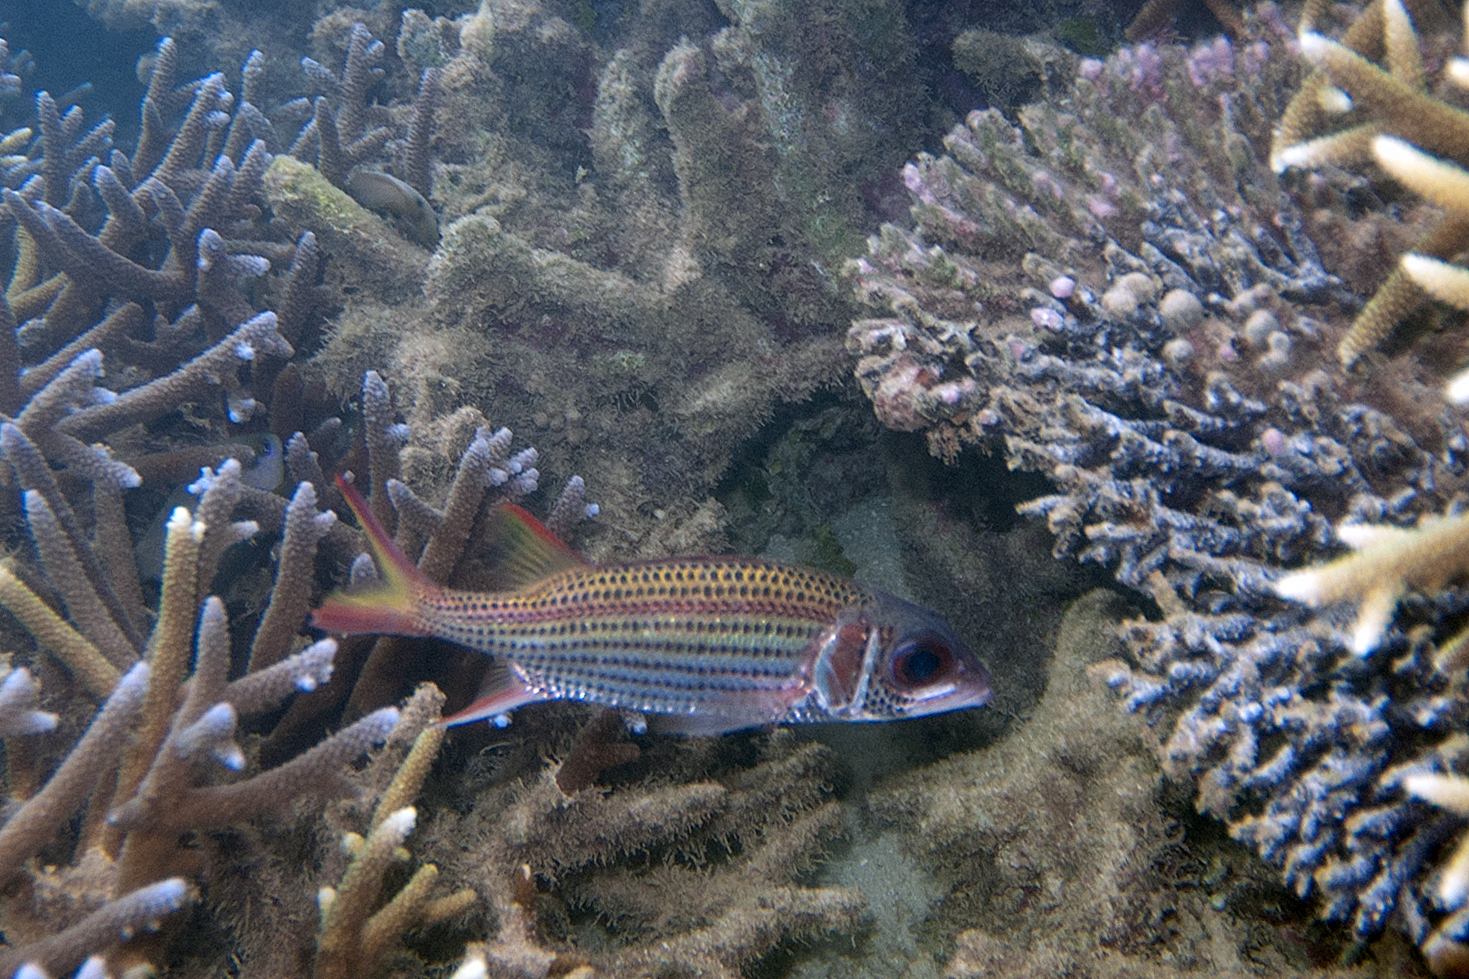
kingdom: Animalia
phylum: Chordata
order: Beryciformes
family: Holocentridae
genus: Neoniphon
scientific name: Neoniphon argenteus
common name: Clearfin squirrelfish
